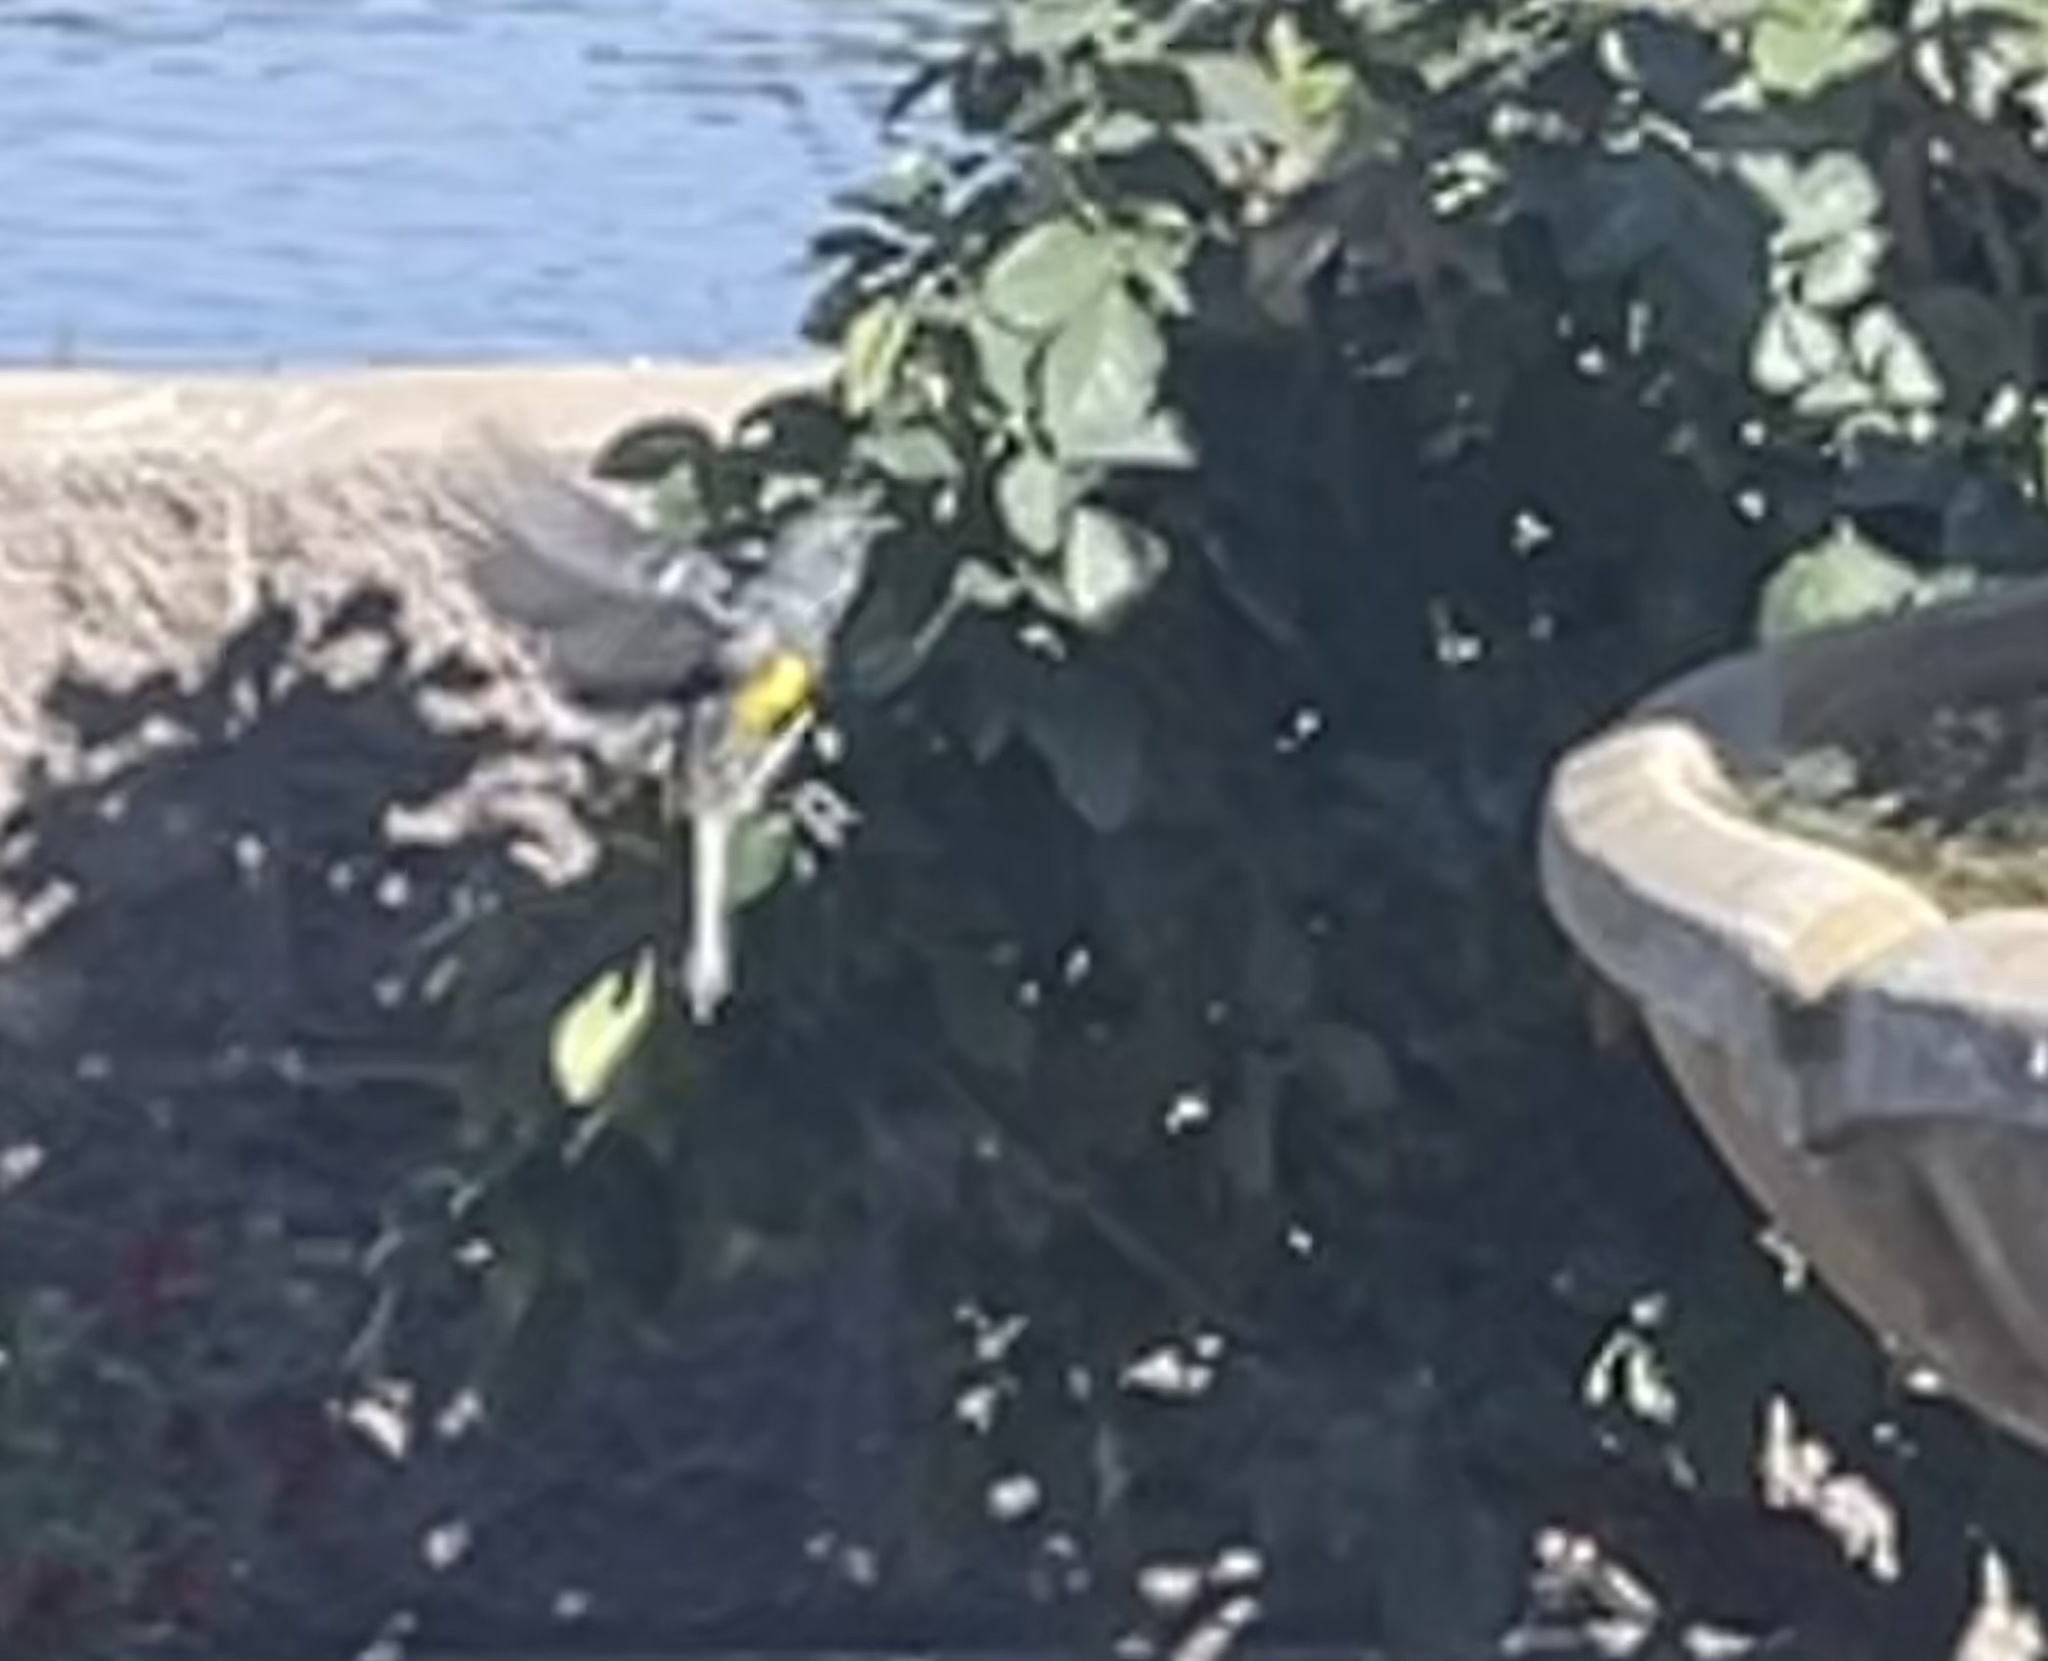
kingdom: Animalia
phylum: Chordata
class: Aves
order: Passeriformes
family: Parulidae
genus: Setophaga
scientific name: Setophaga coronata
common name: Myrtle warbler
